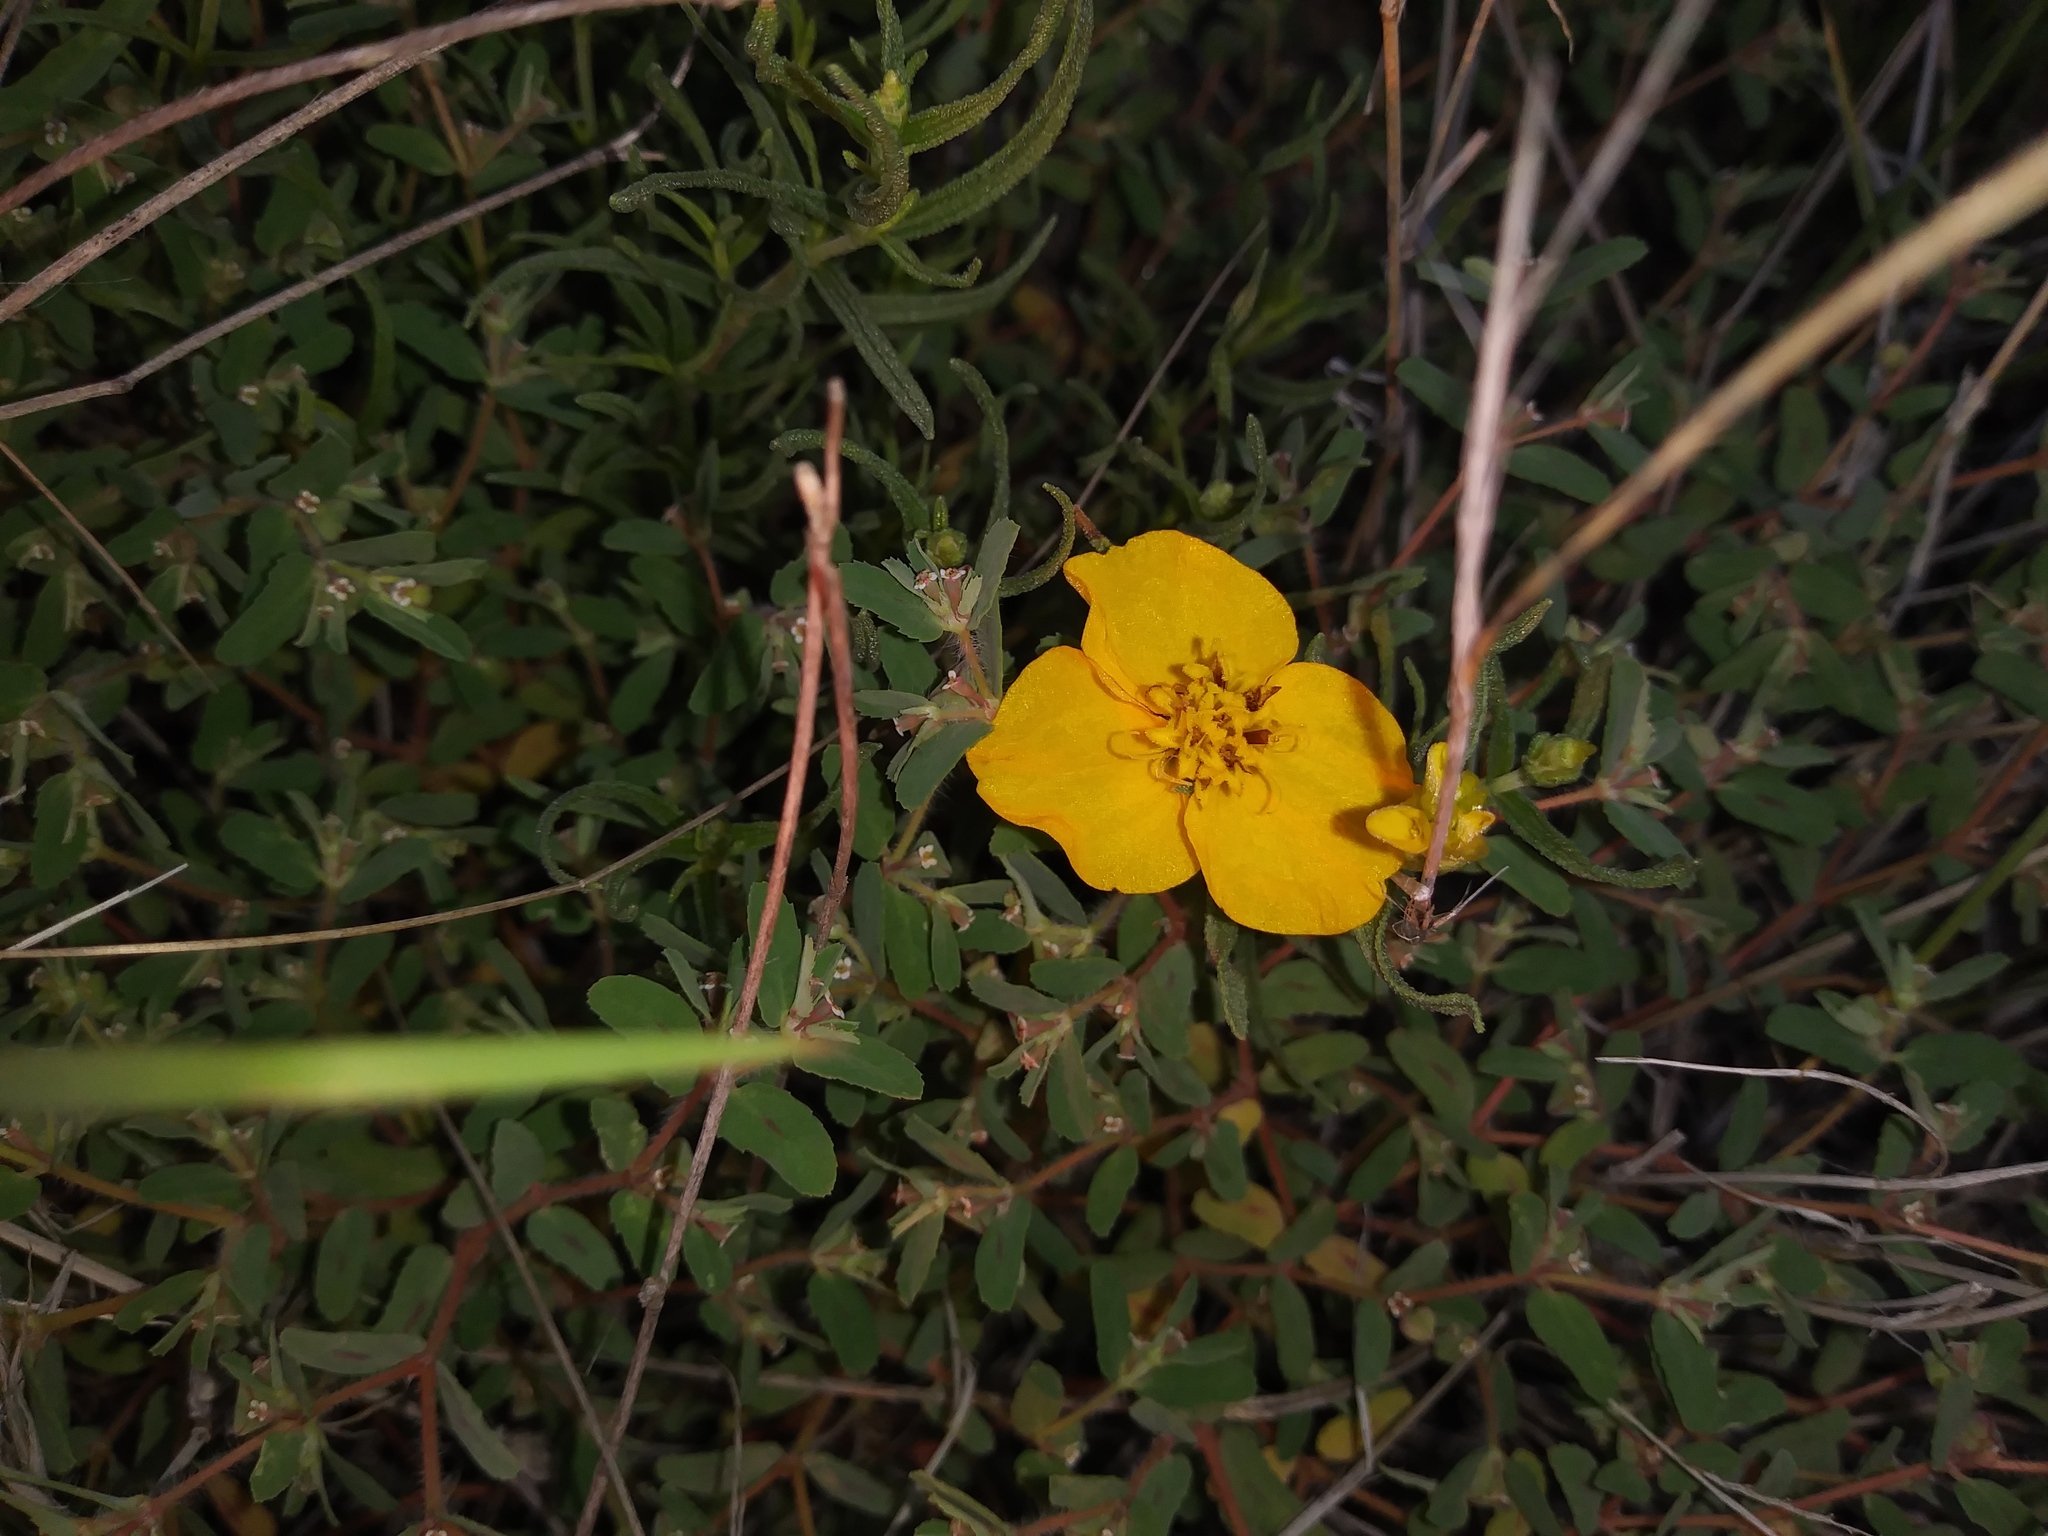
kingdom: Plantae
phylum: Tracheophyta
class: Magnoliopsida
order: Asterales
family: Asteraceae
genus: Zinnia
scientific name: Zinnia grandiflora
